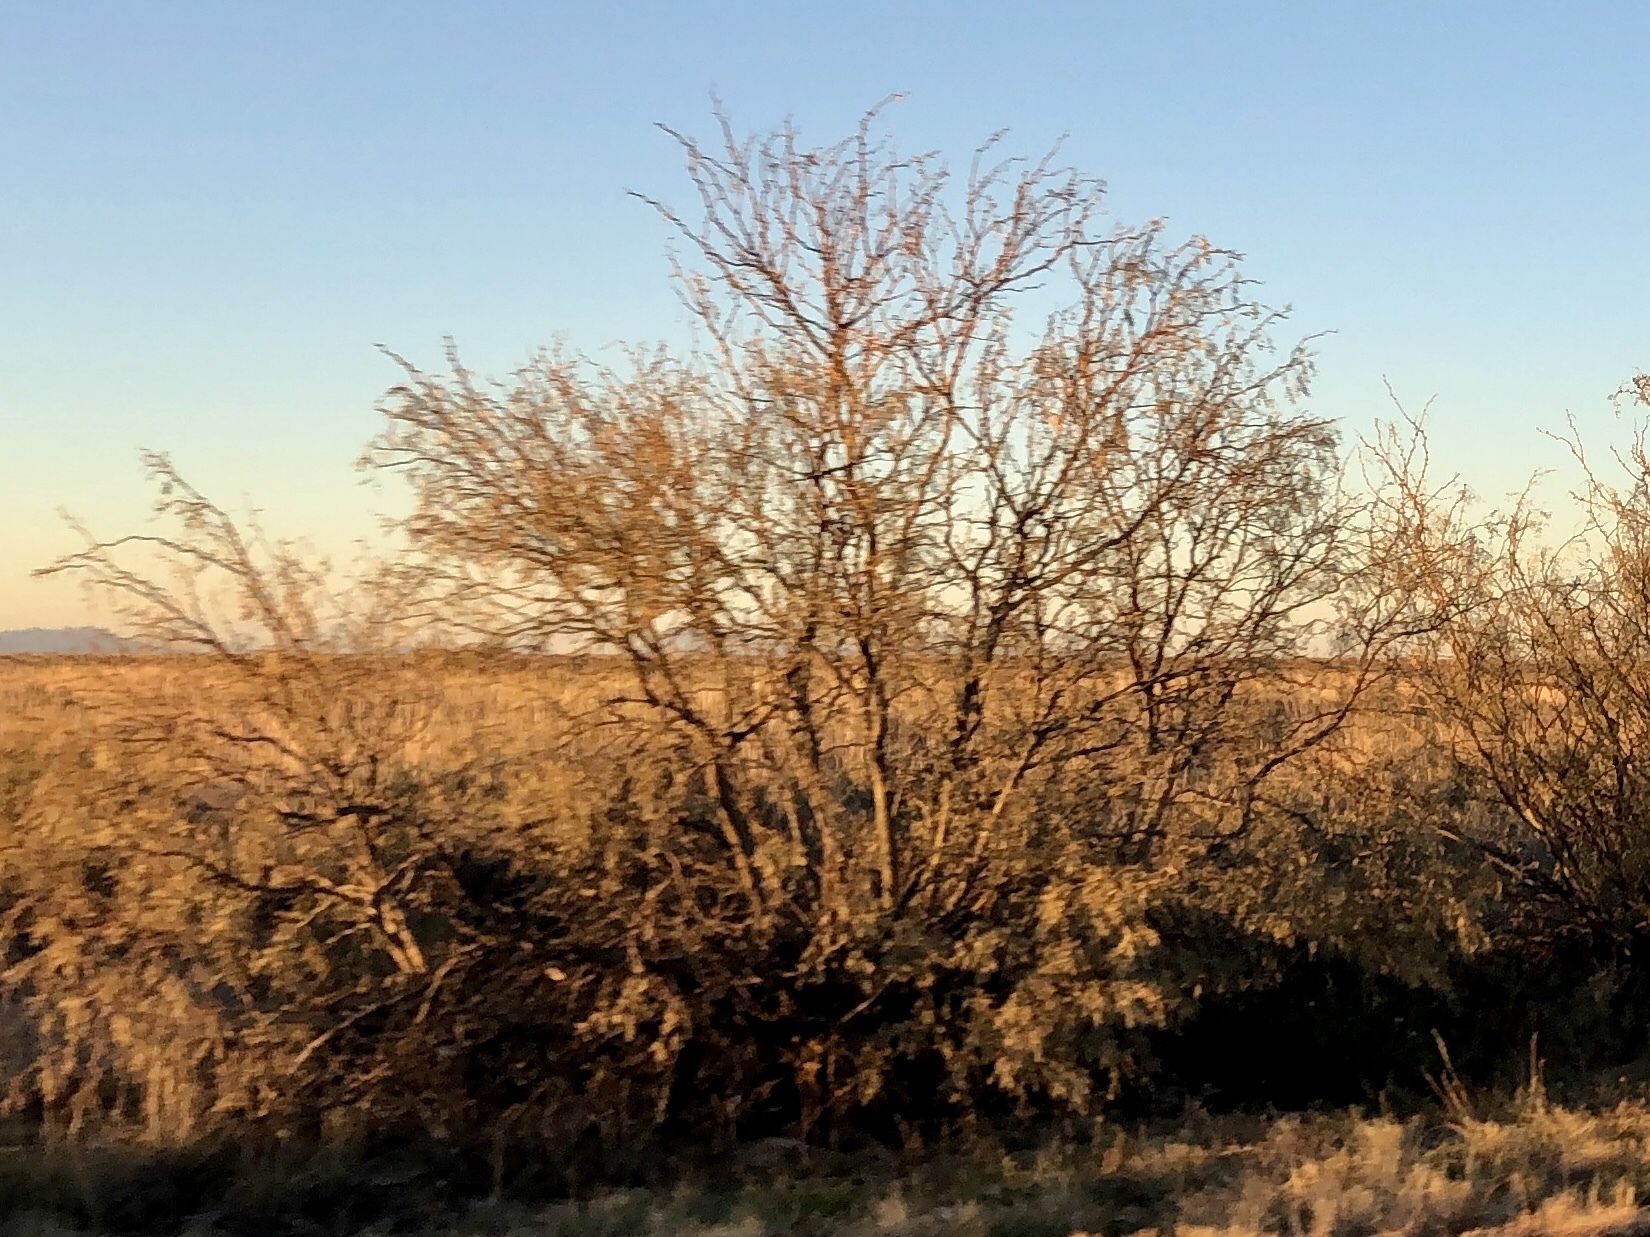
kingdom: Plantae
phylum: Tracheophyta
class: Magnoliopsida
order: Fabales
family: Fabaceae
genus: Prosopis
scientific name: Prosopis glandulosa
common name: Honey mesquite
